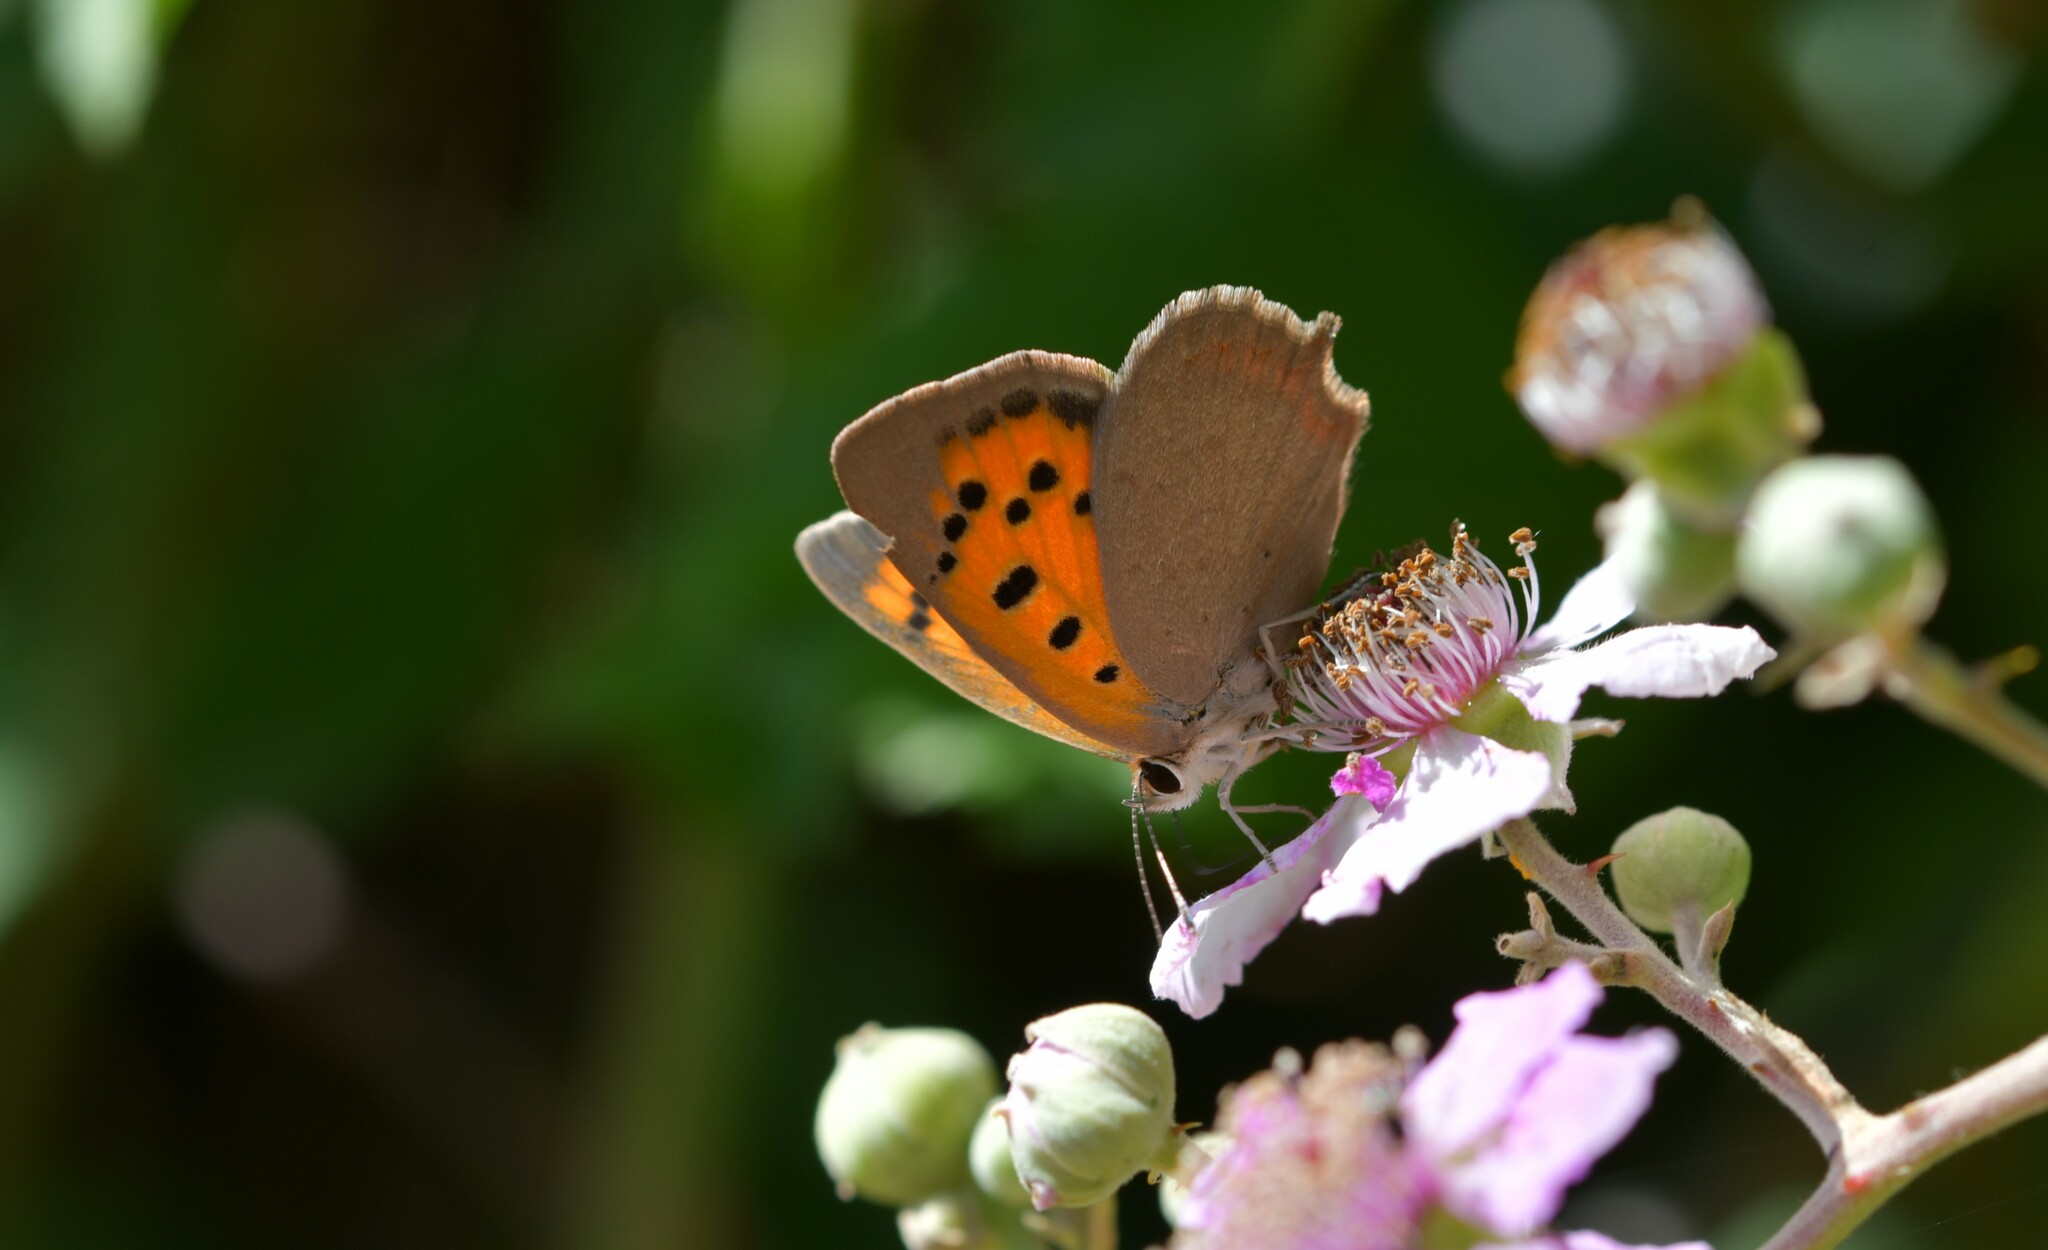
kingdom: Animalia
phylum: Arthropoda
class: Insecta
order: Lepidoptera
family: Lycaenidae
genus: Lycaena
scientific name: Lycaena phlaeas
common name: Small copper
